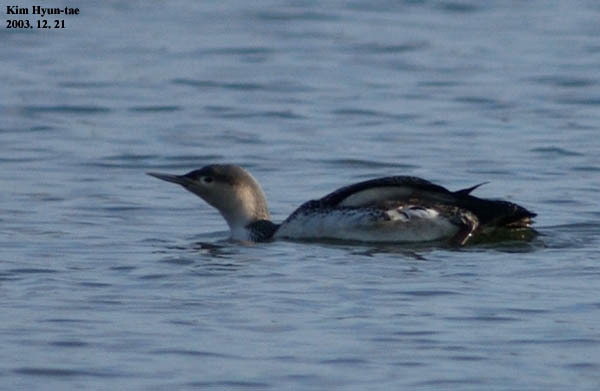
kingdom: Animalia
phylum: Chordata
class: Aves
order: Gaviiformes
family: Gaviidae
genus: Gavia
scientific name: Gavia stellata
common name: Red-throated loon
